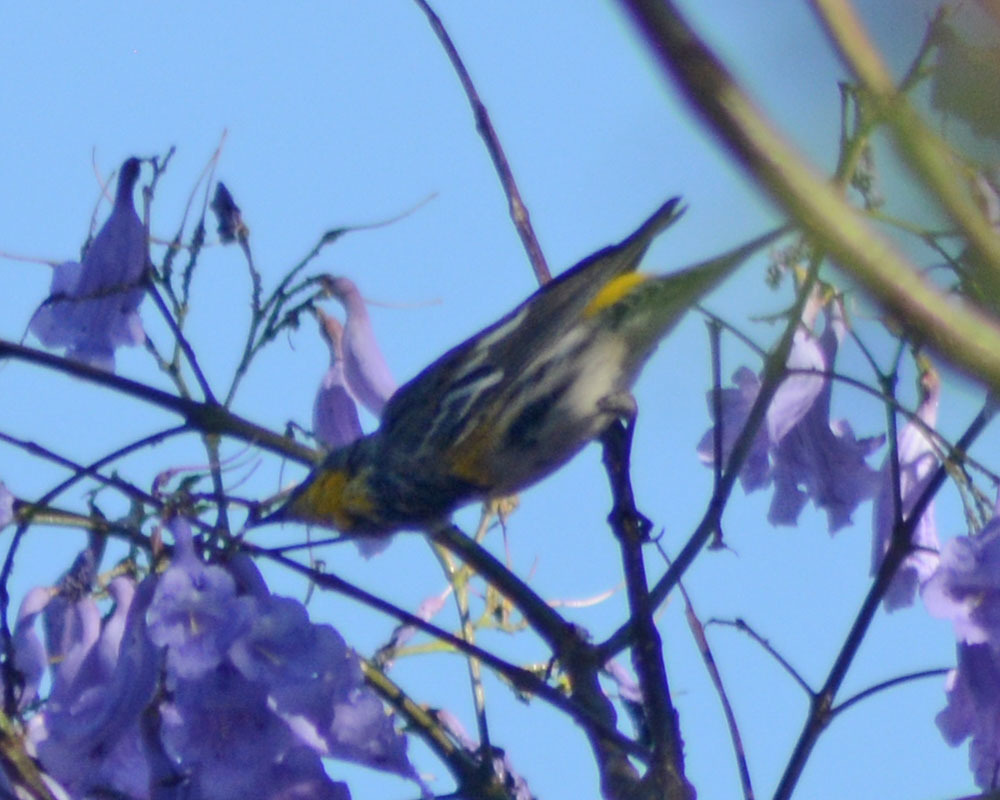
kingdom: Animalia
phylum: Chordata
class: Aves
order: Passeriformes
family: Parulidae
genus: Setophaga
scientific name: Setophaga auduboni
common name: Audubon's warbler
